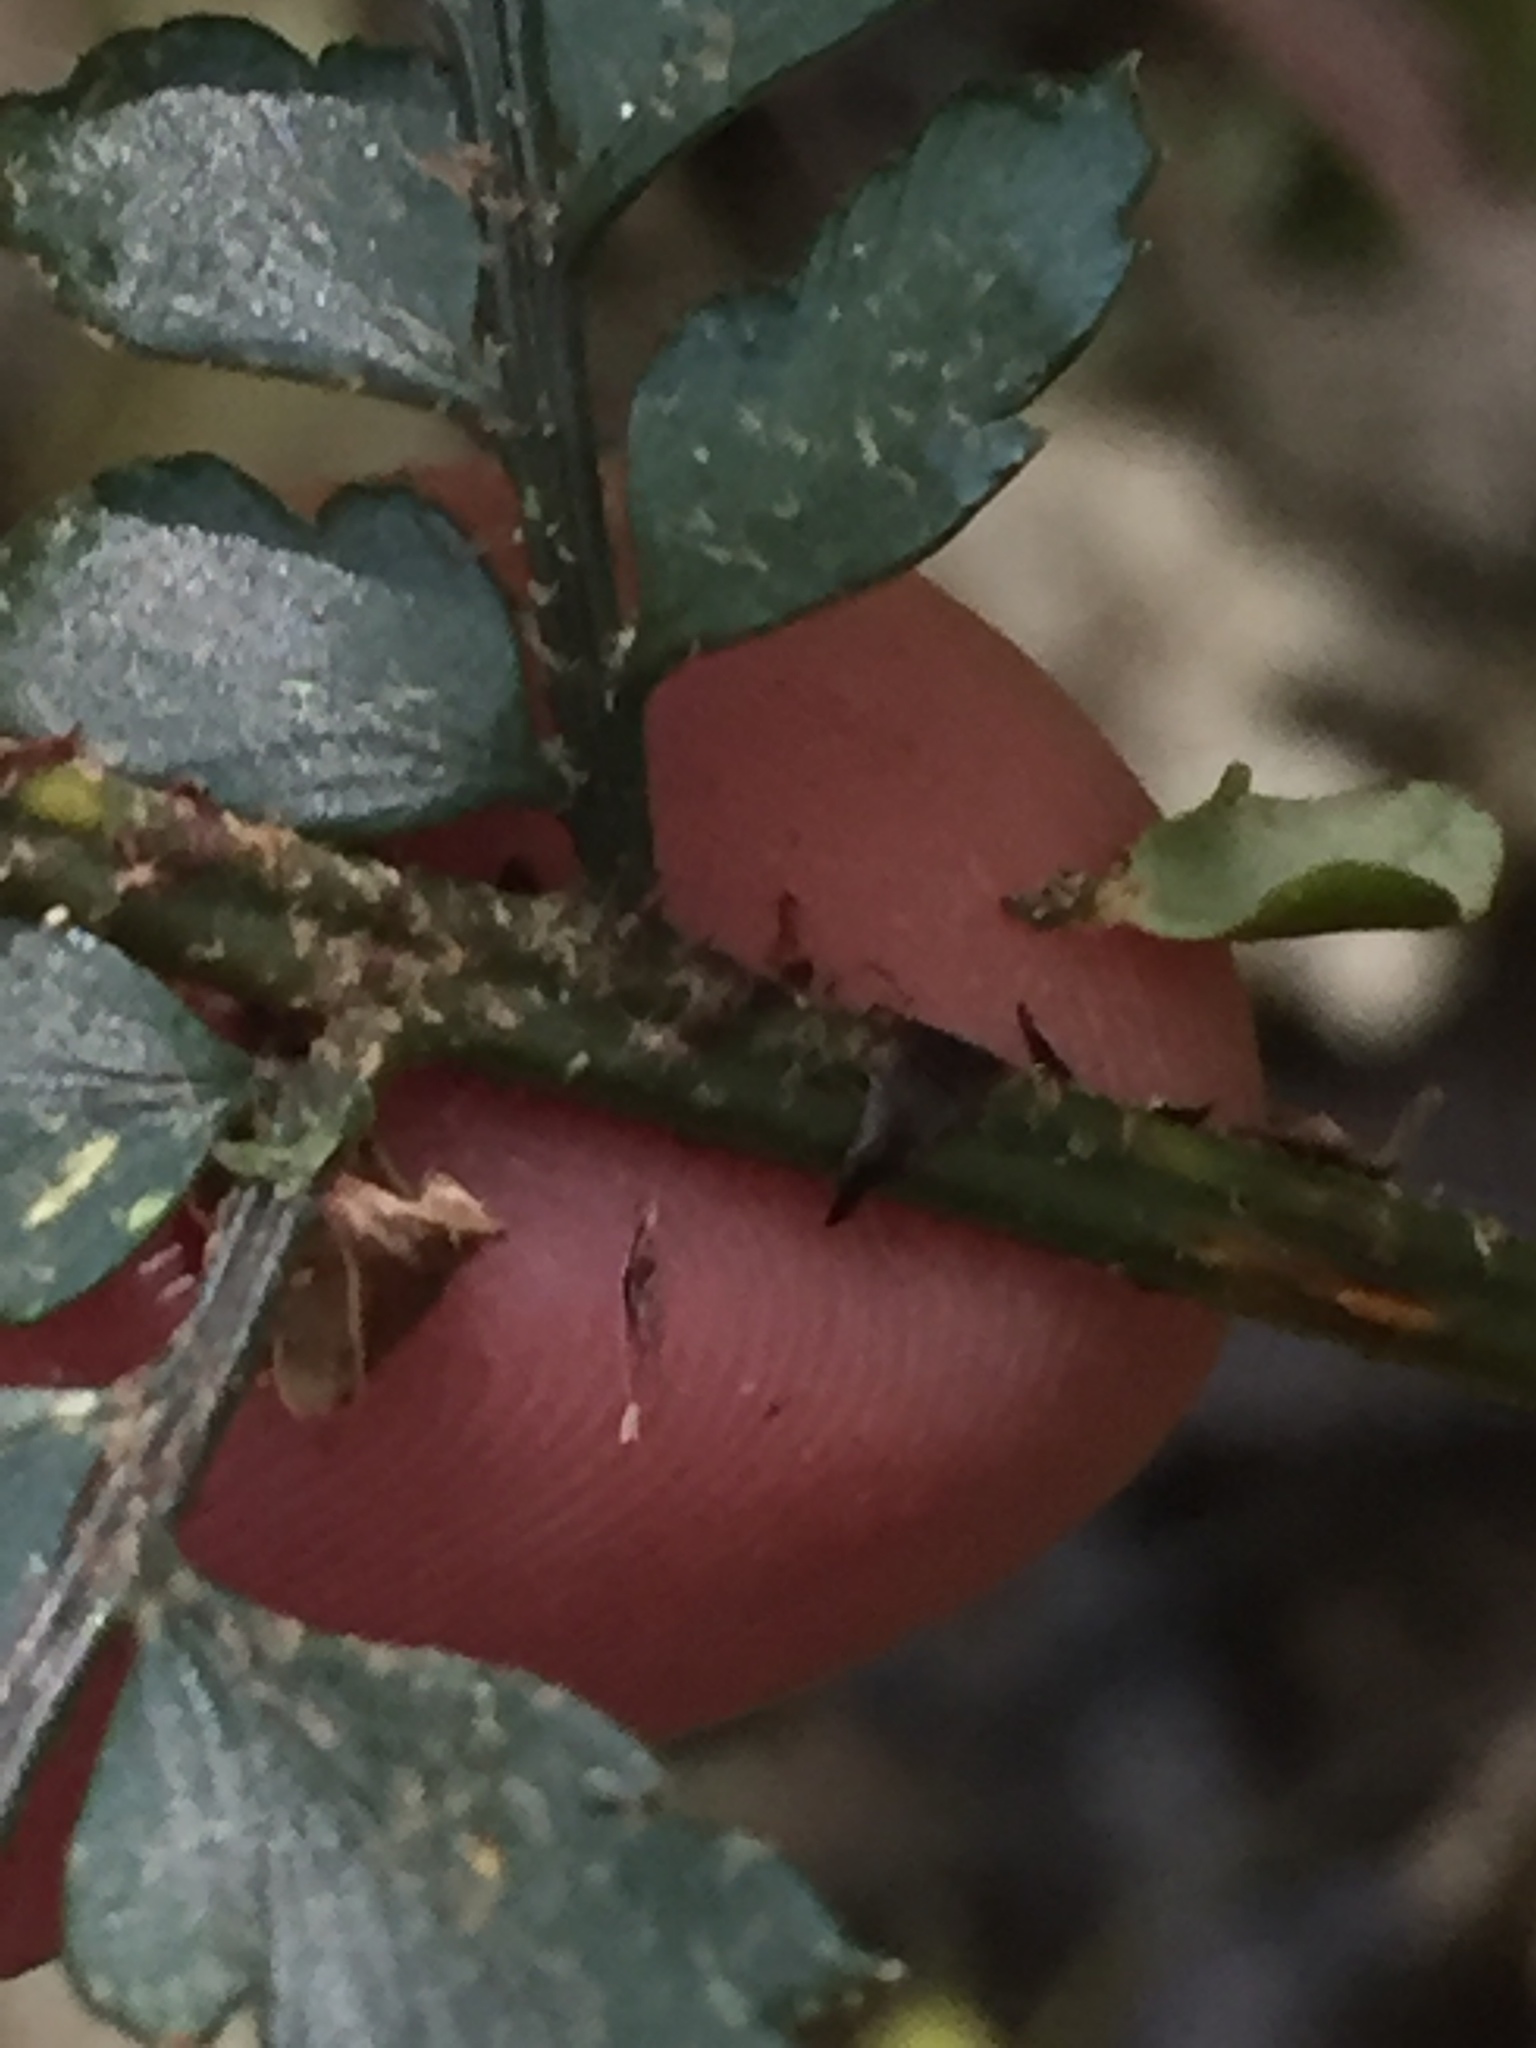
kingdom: Plantae
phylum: Tracheophyta
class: Polypodiopsida
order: Polypodiales
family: Dryopteridaceae
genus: Polystichum
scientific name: Polystichum oculatum
